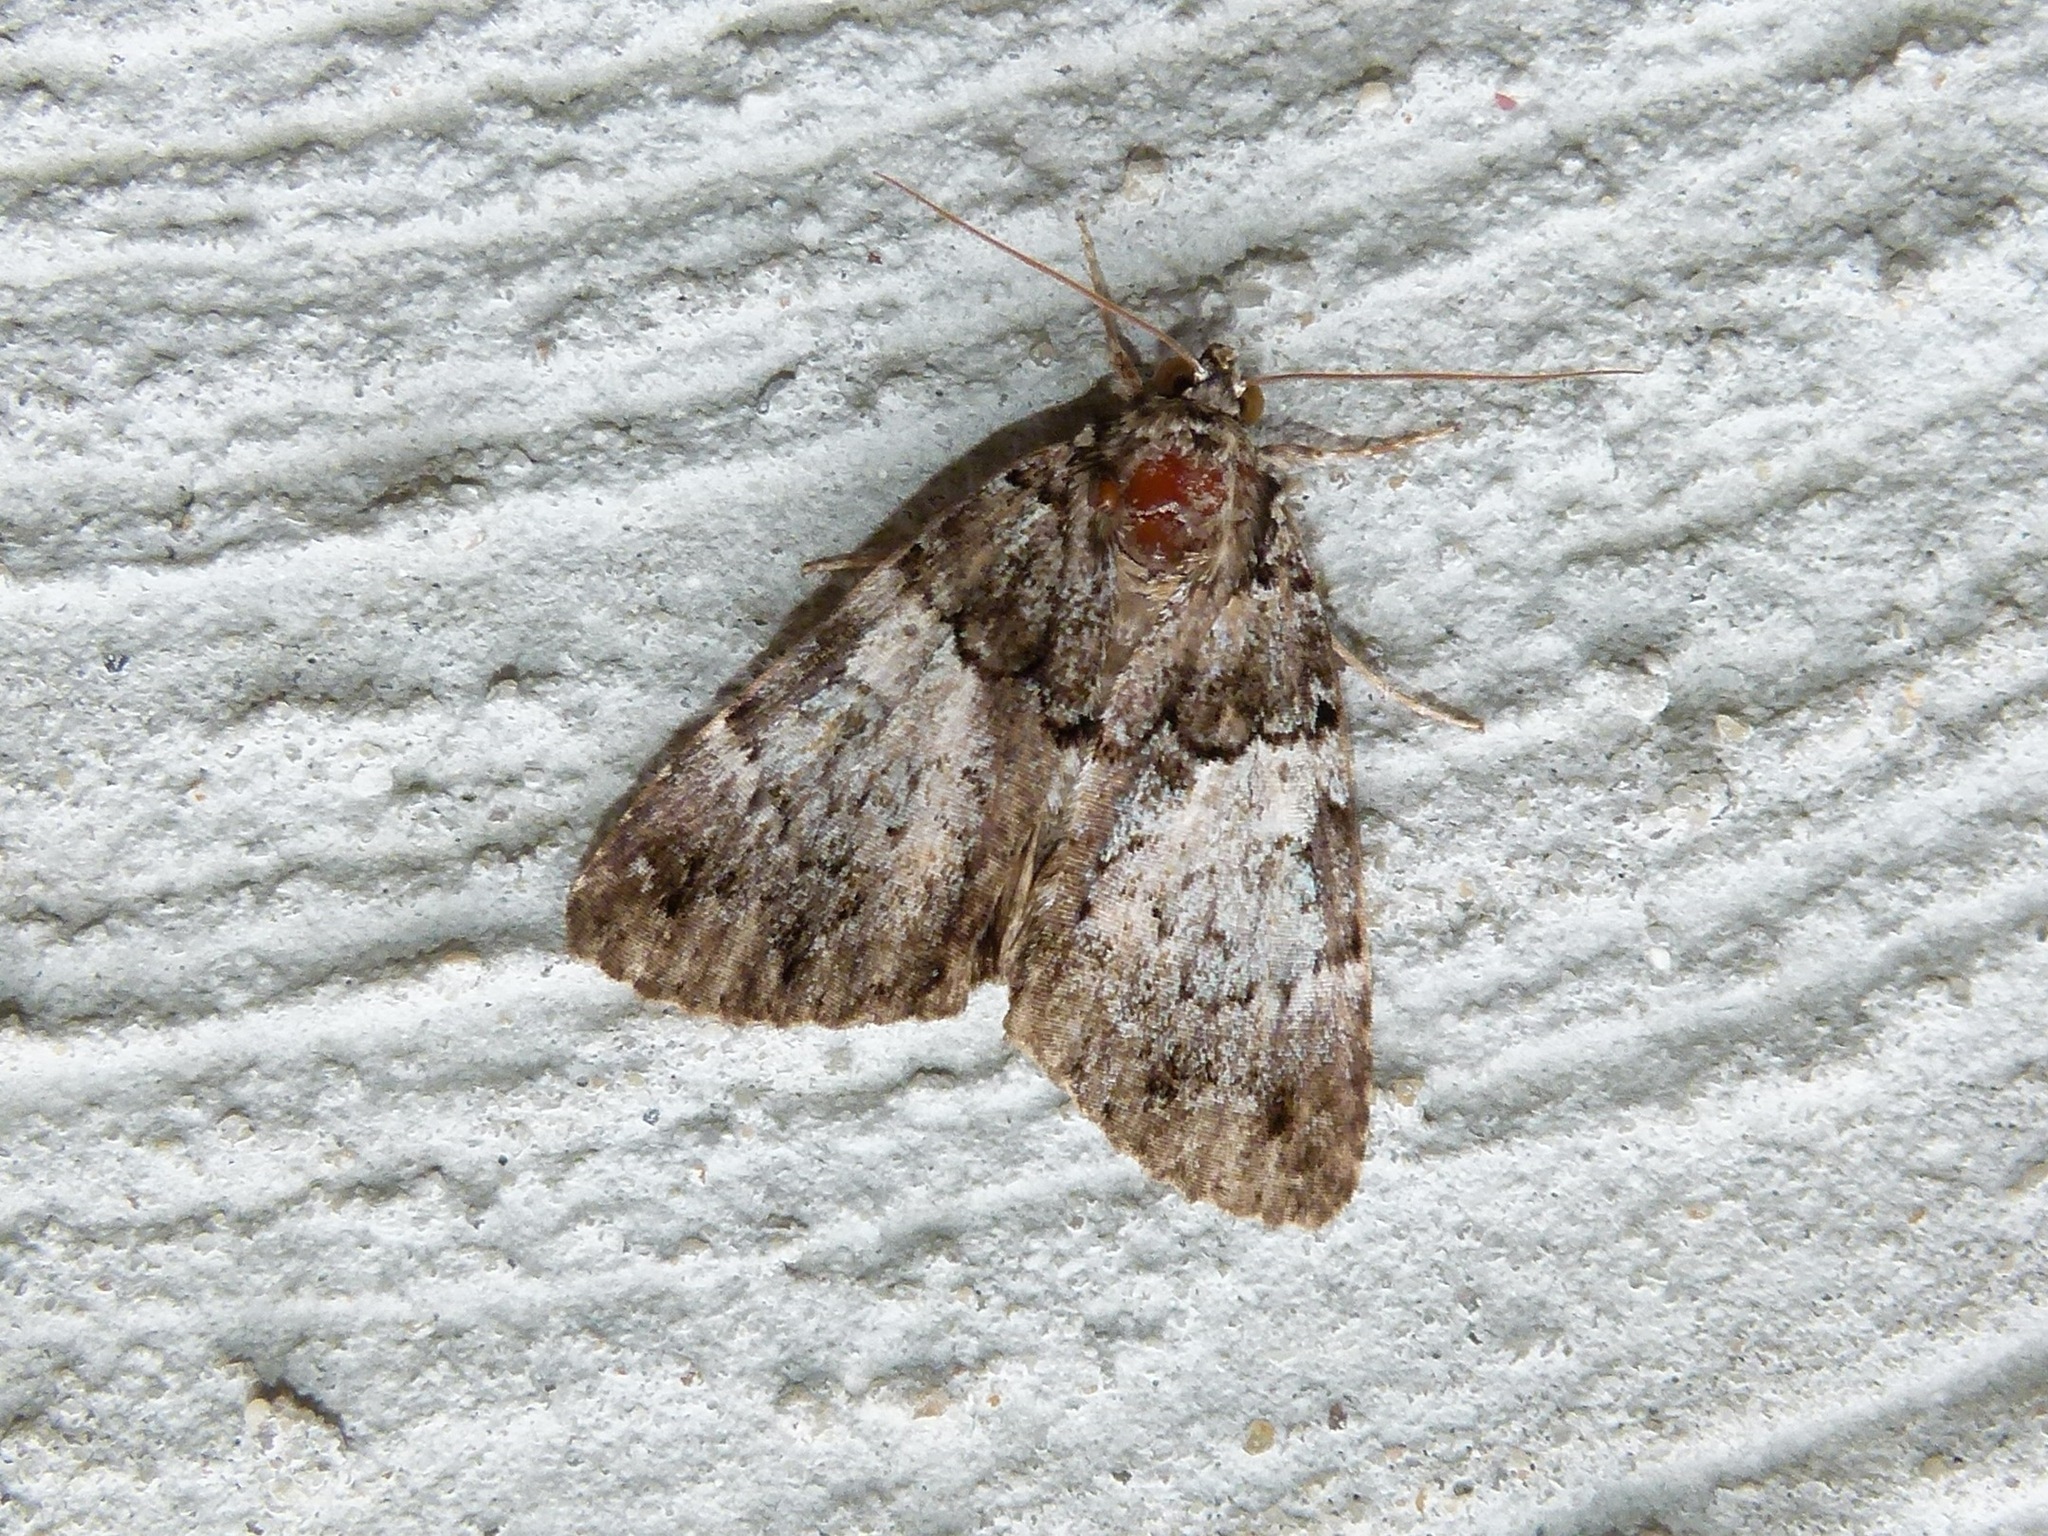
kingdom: Animalia
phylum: Arthropoda
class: Insecta
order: Lepidoptera
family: Erebidae
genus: Allotria
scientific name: Allotria elonympha
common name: False underwing
